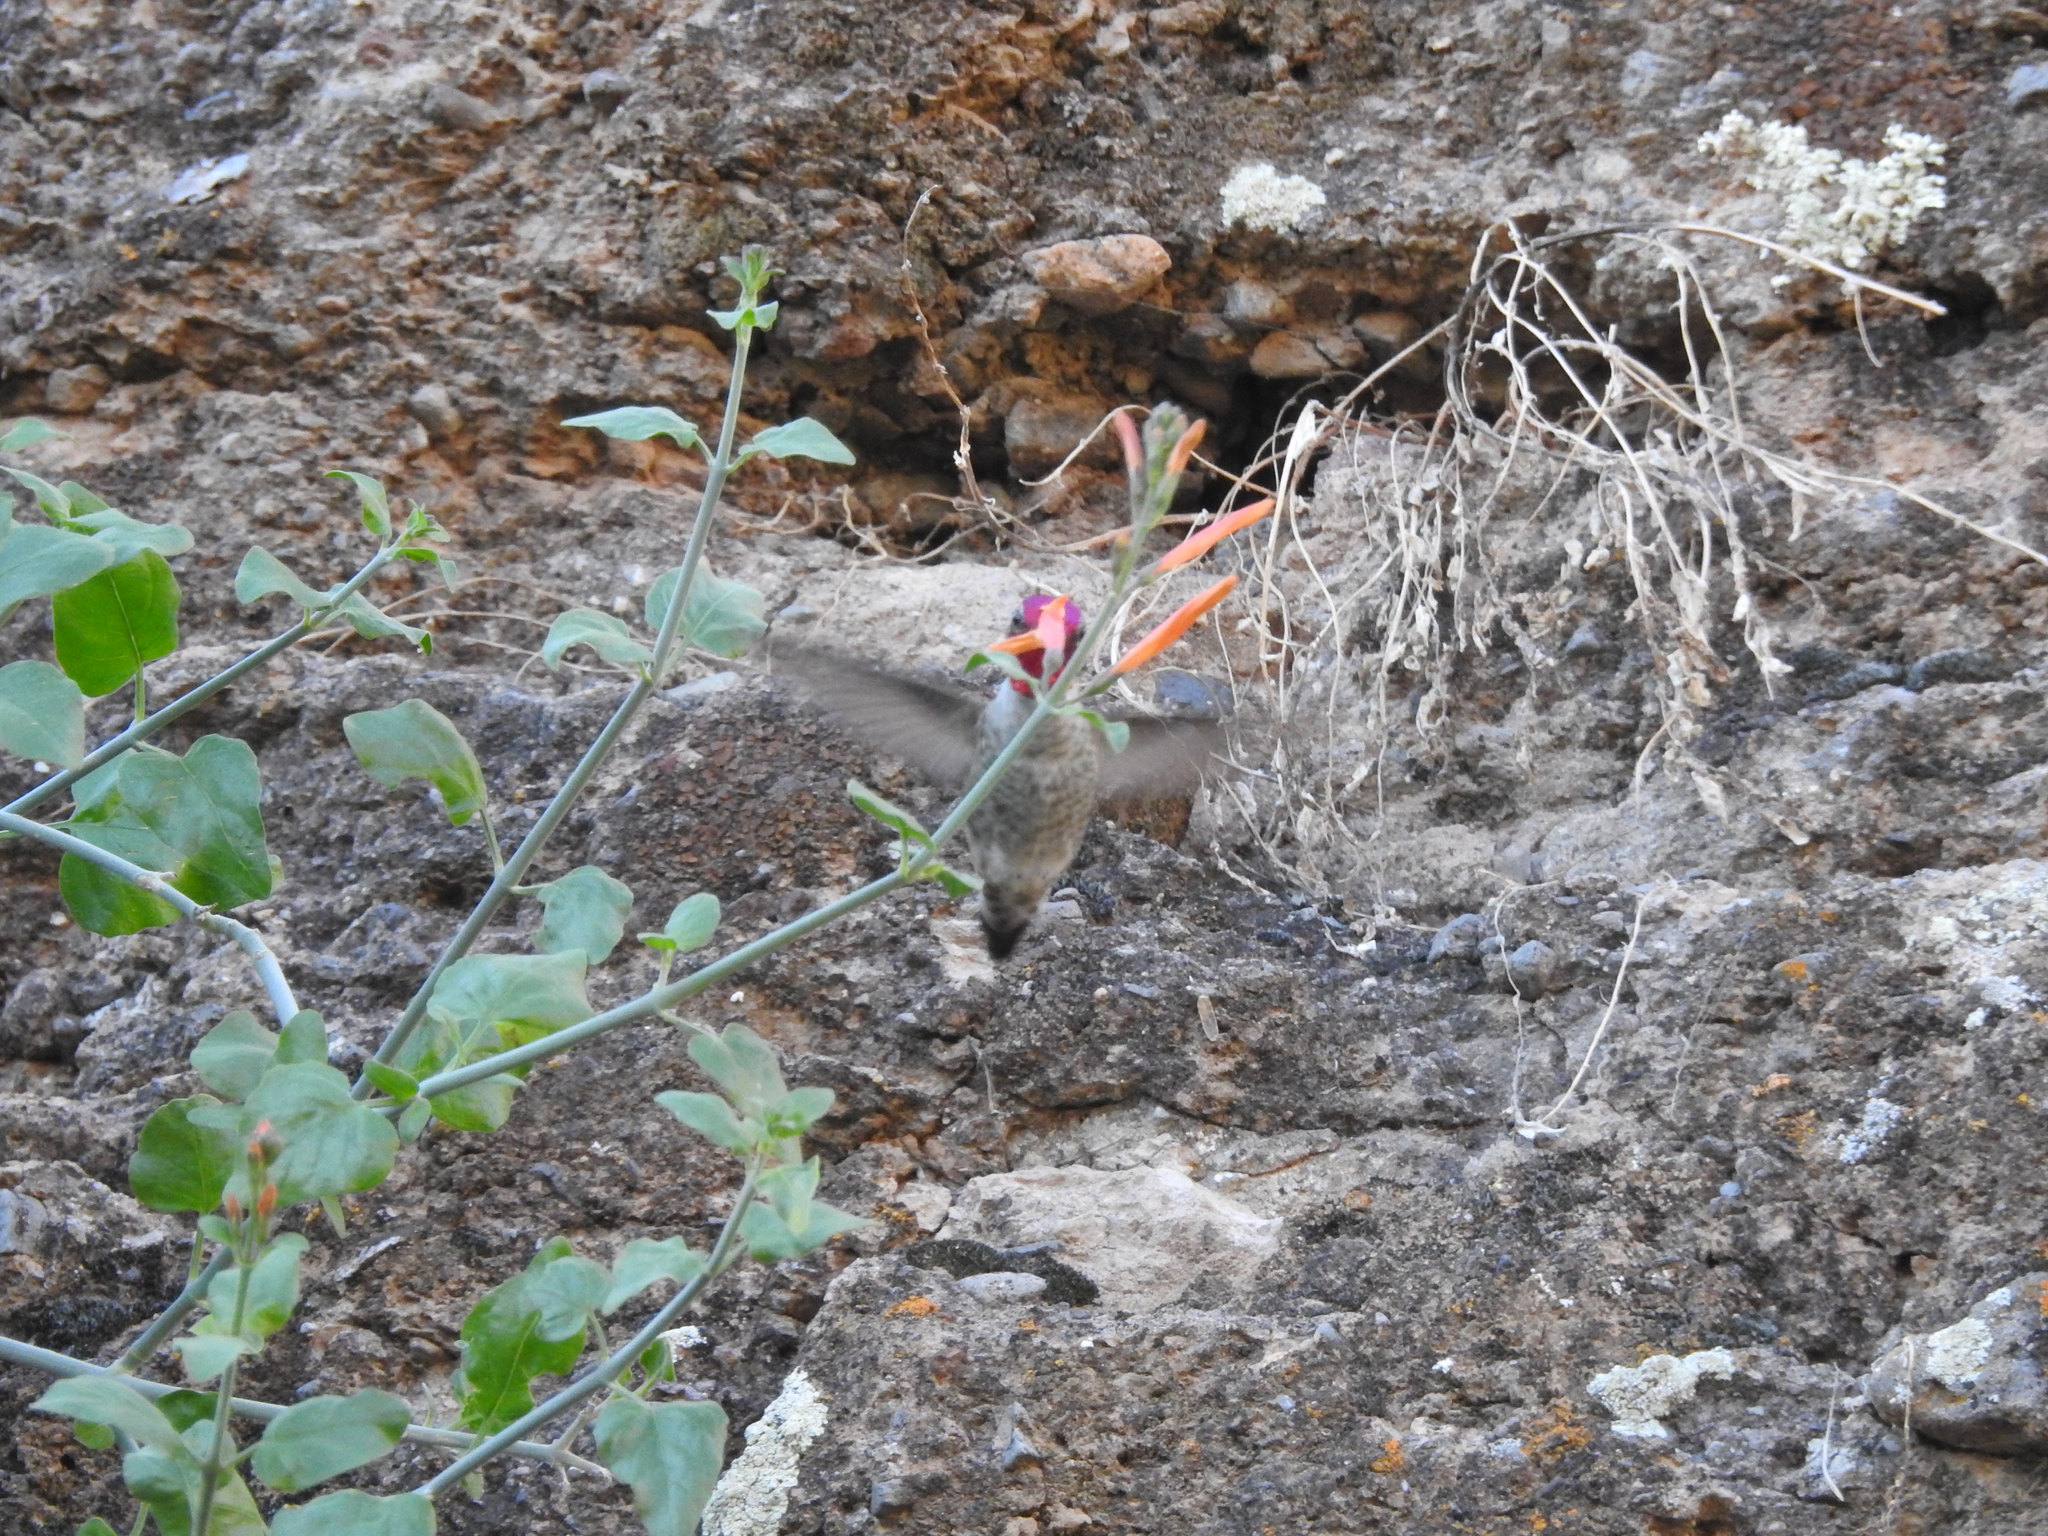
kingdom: Plantae
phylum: Tracheophyta
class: Magnoliopsida
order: Lamiales
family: Acanthaceae
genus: Justicia
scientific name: Justicia californica
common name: Chuparosa-honeysuckle
